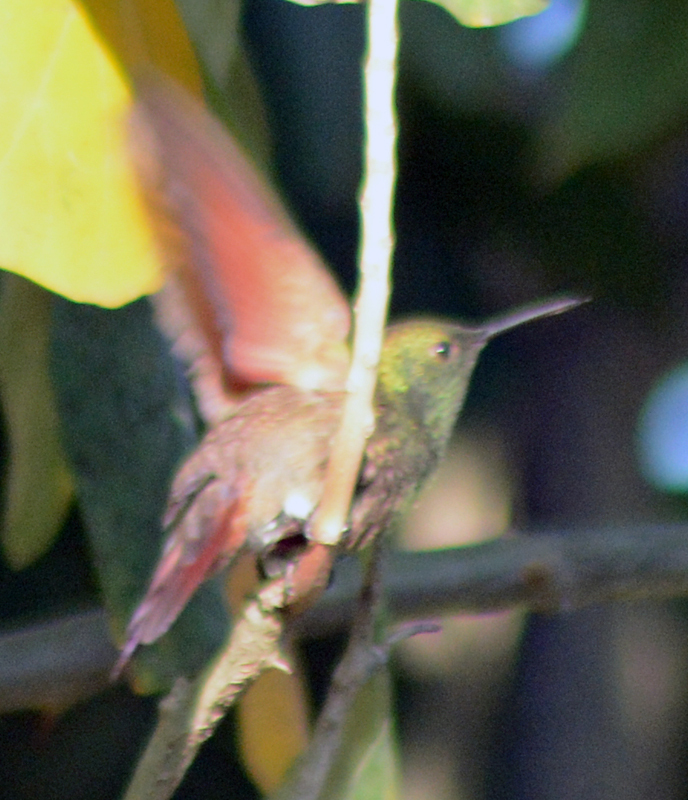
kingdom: Animalia
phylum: Chordata
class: Aves
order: Apodiformes
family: Trochilidae
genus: Saucerottia
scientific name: Saucerottia beryllina
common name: Berylline hummingbird
